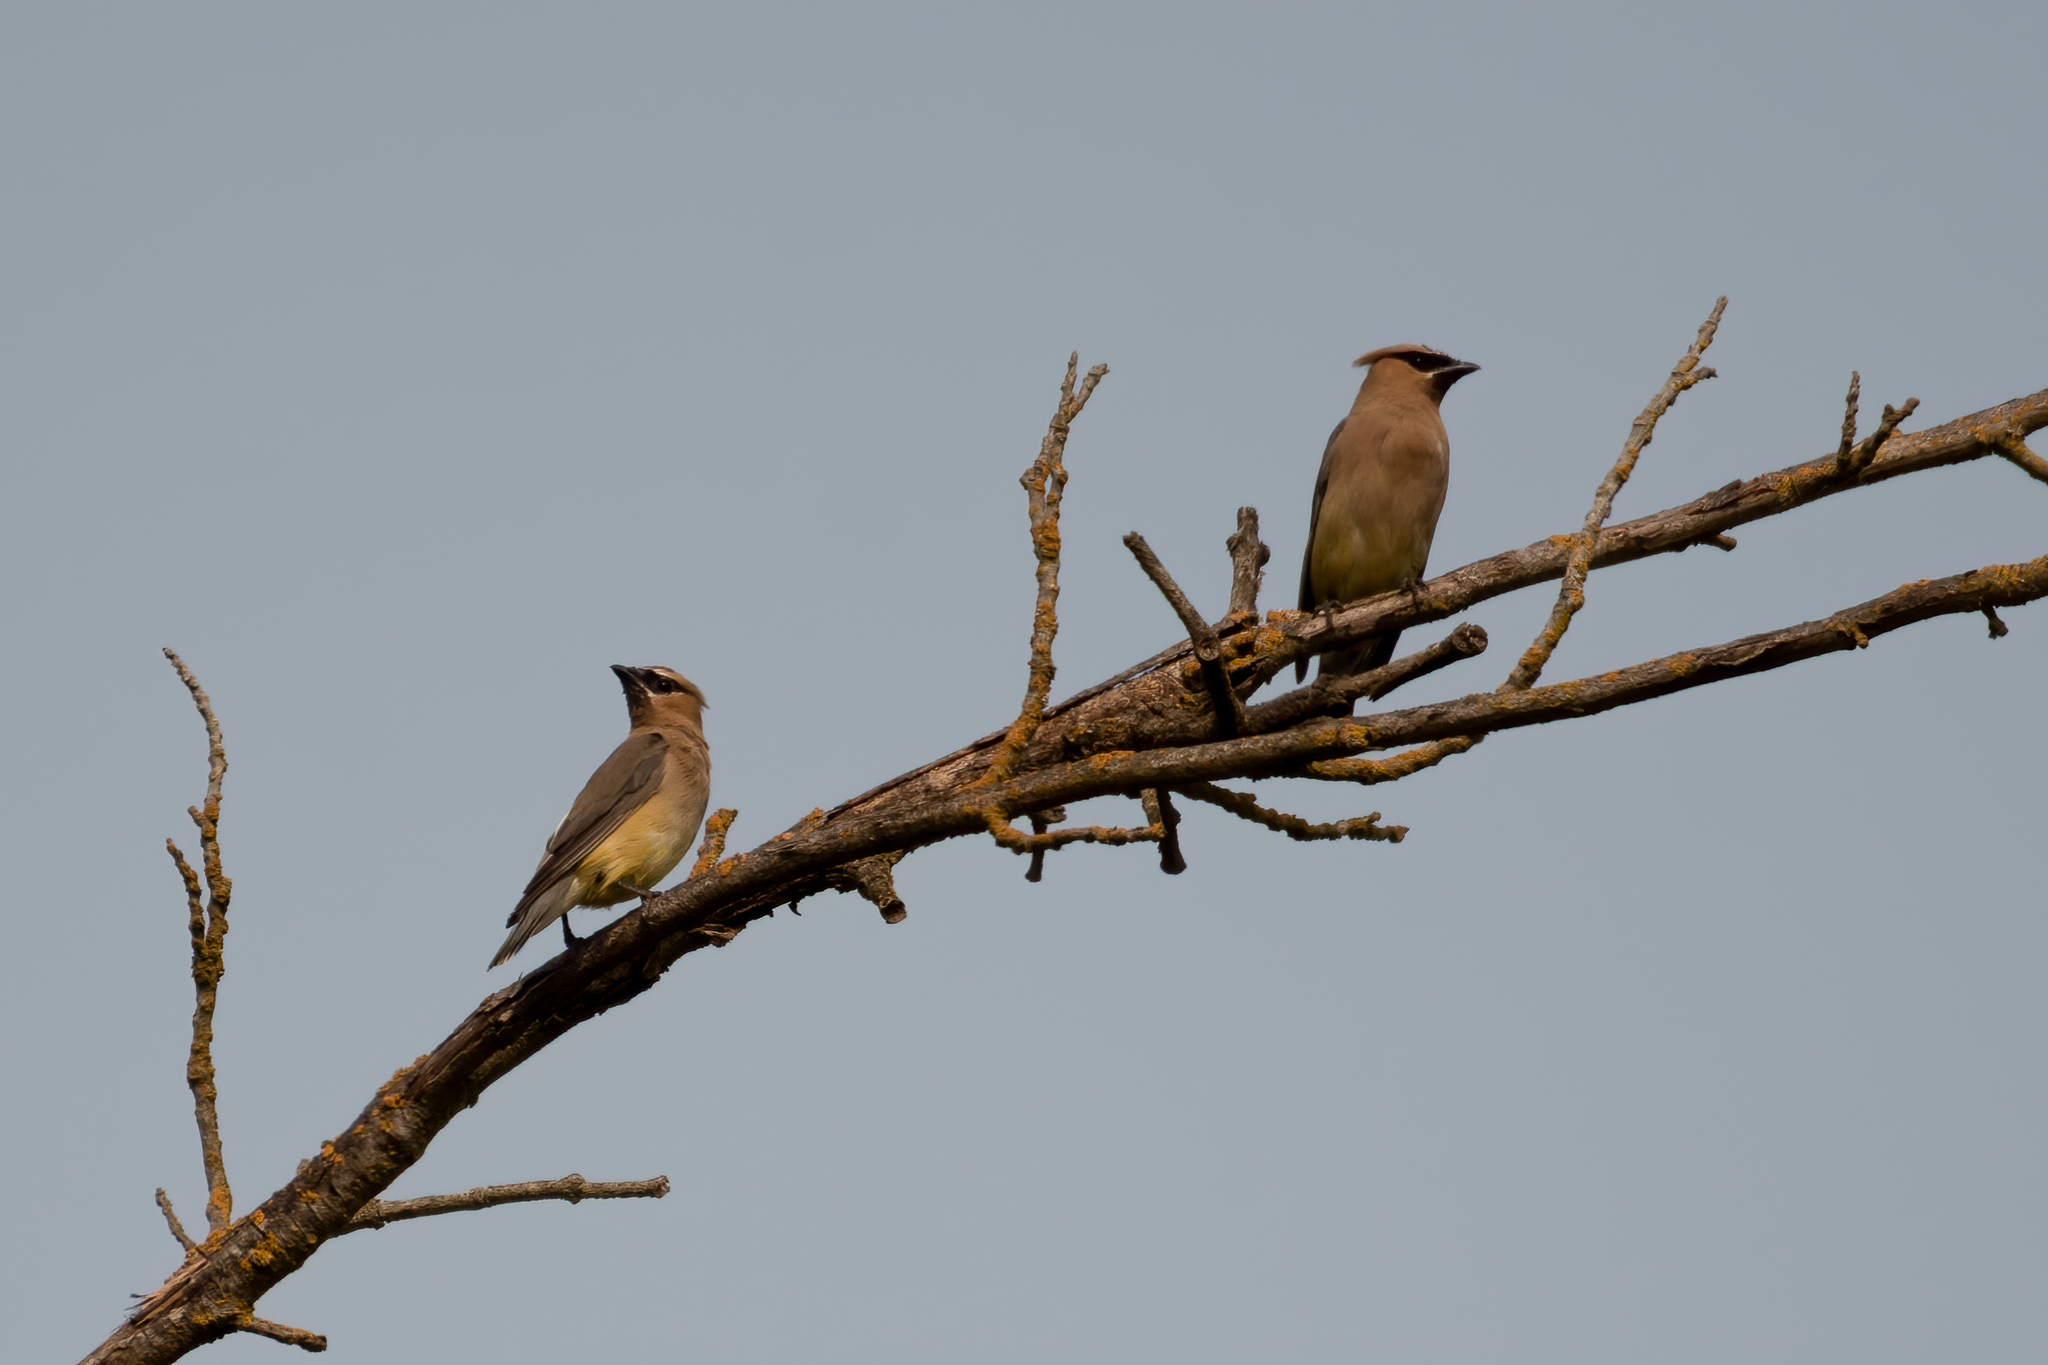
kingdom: Animalia
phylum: Chordata
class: Aves
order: Passeriformes
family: Bombycillidae
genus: Bombycilla
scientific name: Bombycilla cedrorum
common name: Cedar waxwing
